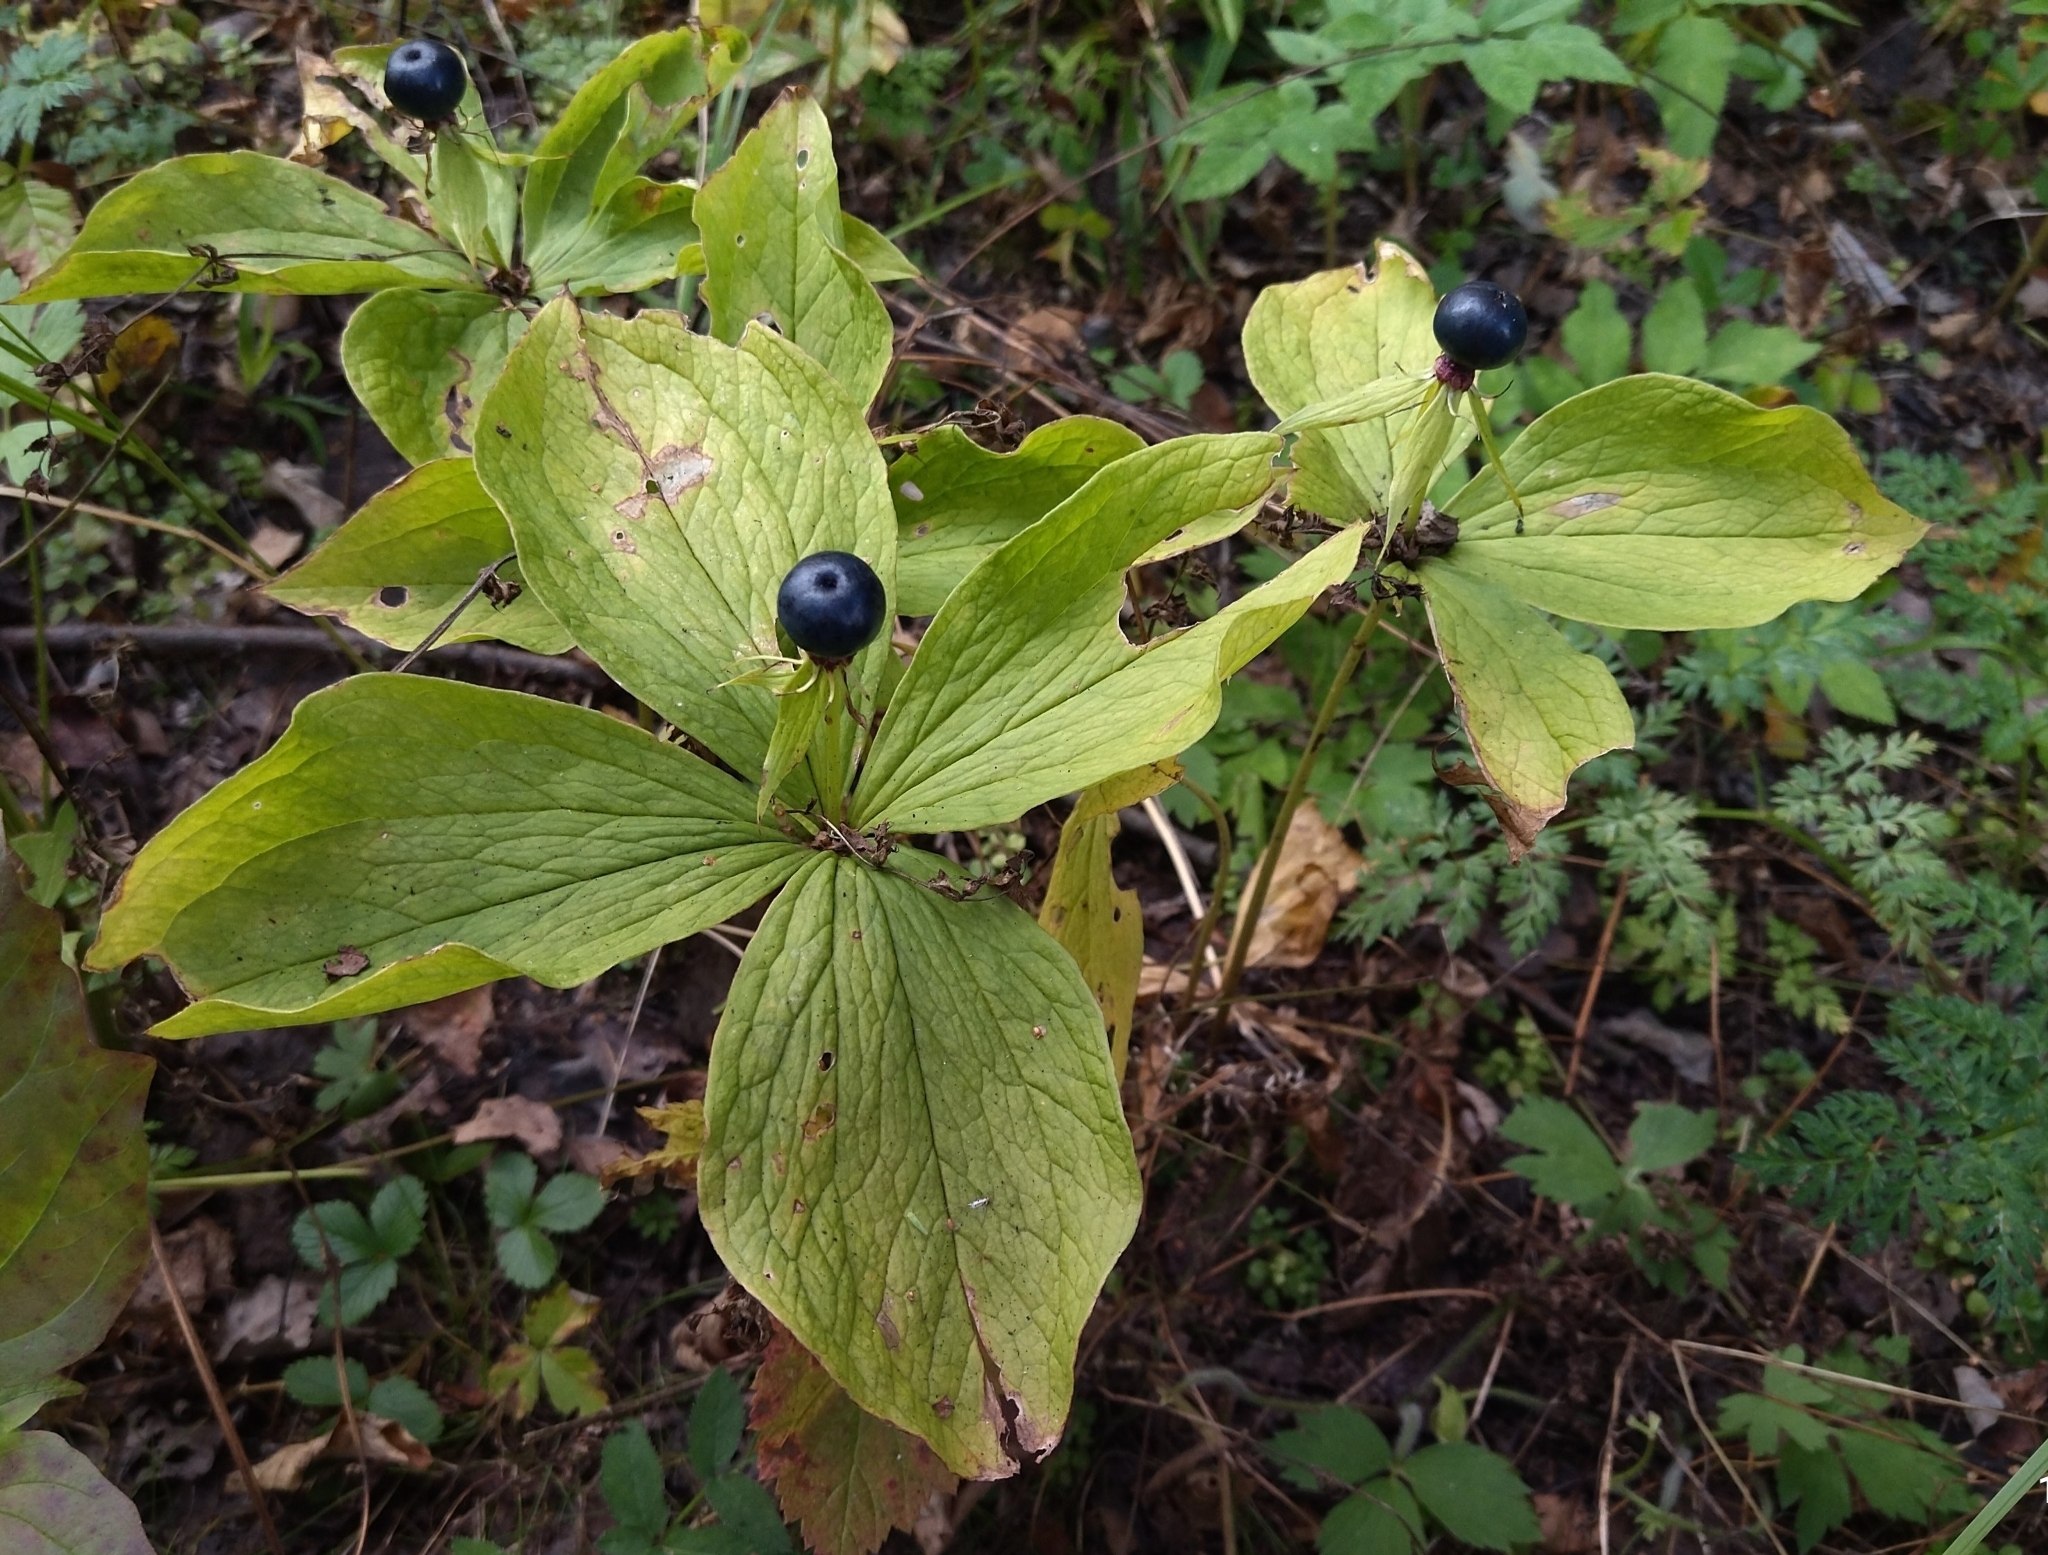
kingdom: Plantae
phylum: Tracheophyta
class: Liliopsida
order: Liliales
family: Melanthiaceae
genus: Paris
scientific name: Paris quadrifolia
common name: Herb-paris
